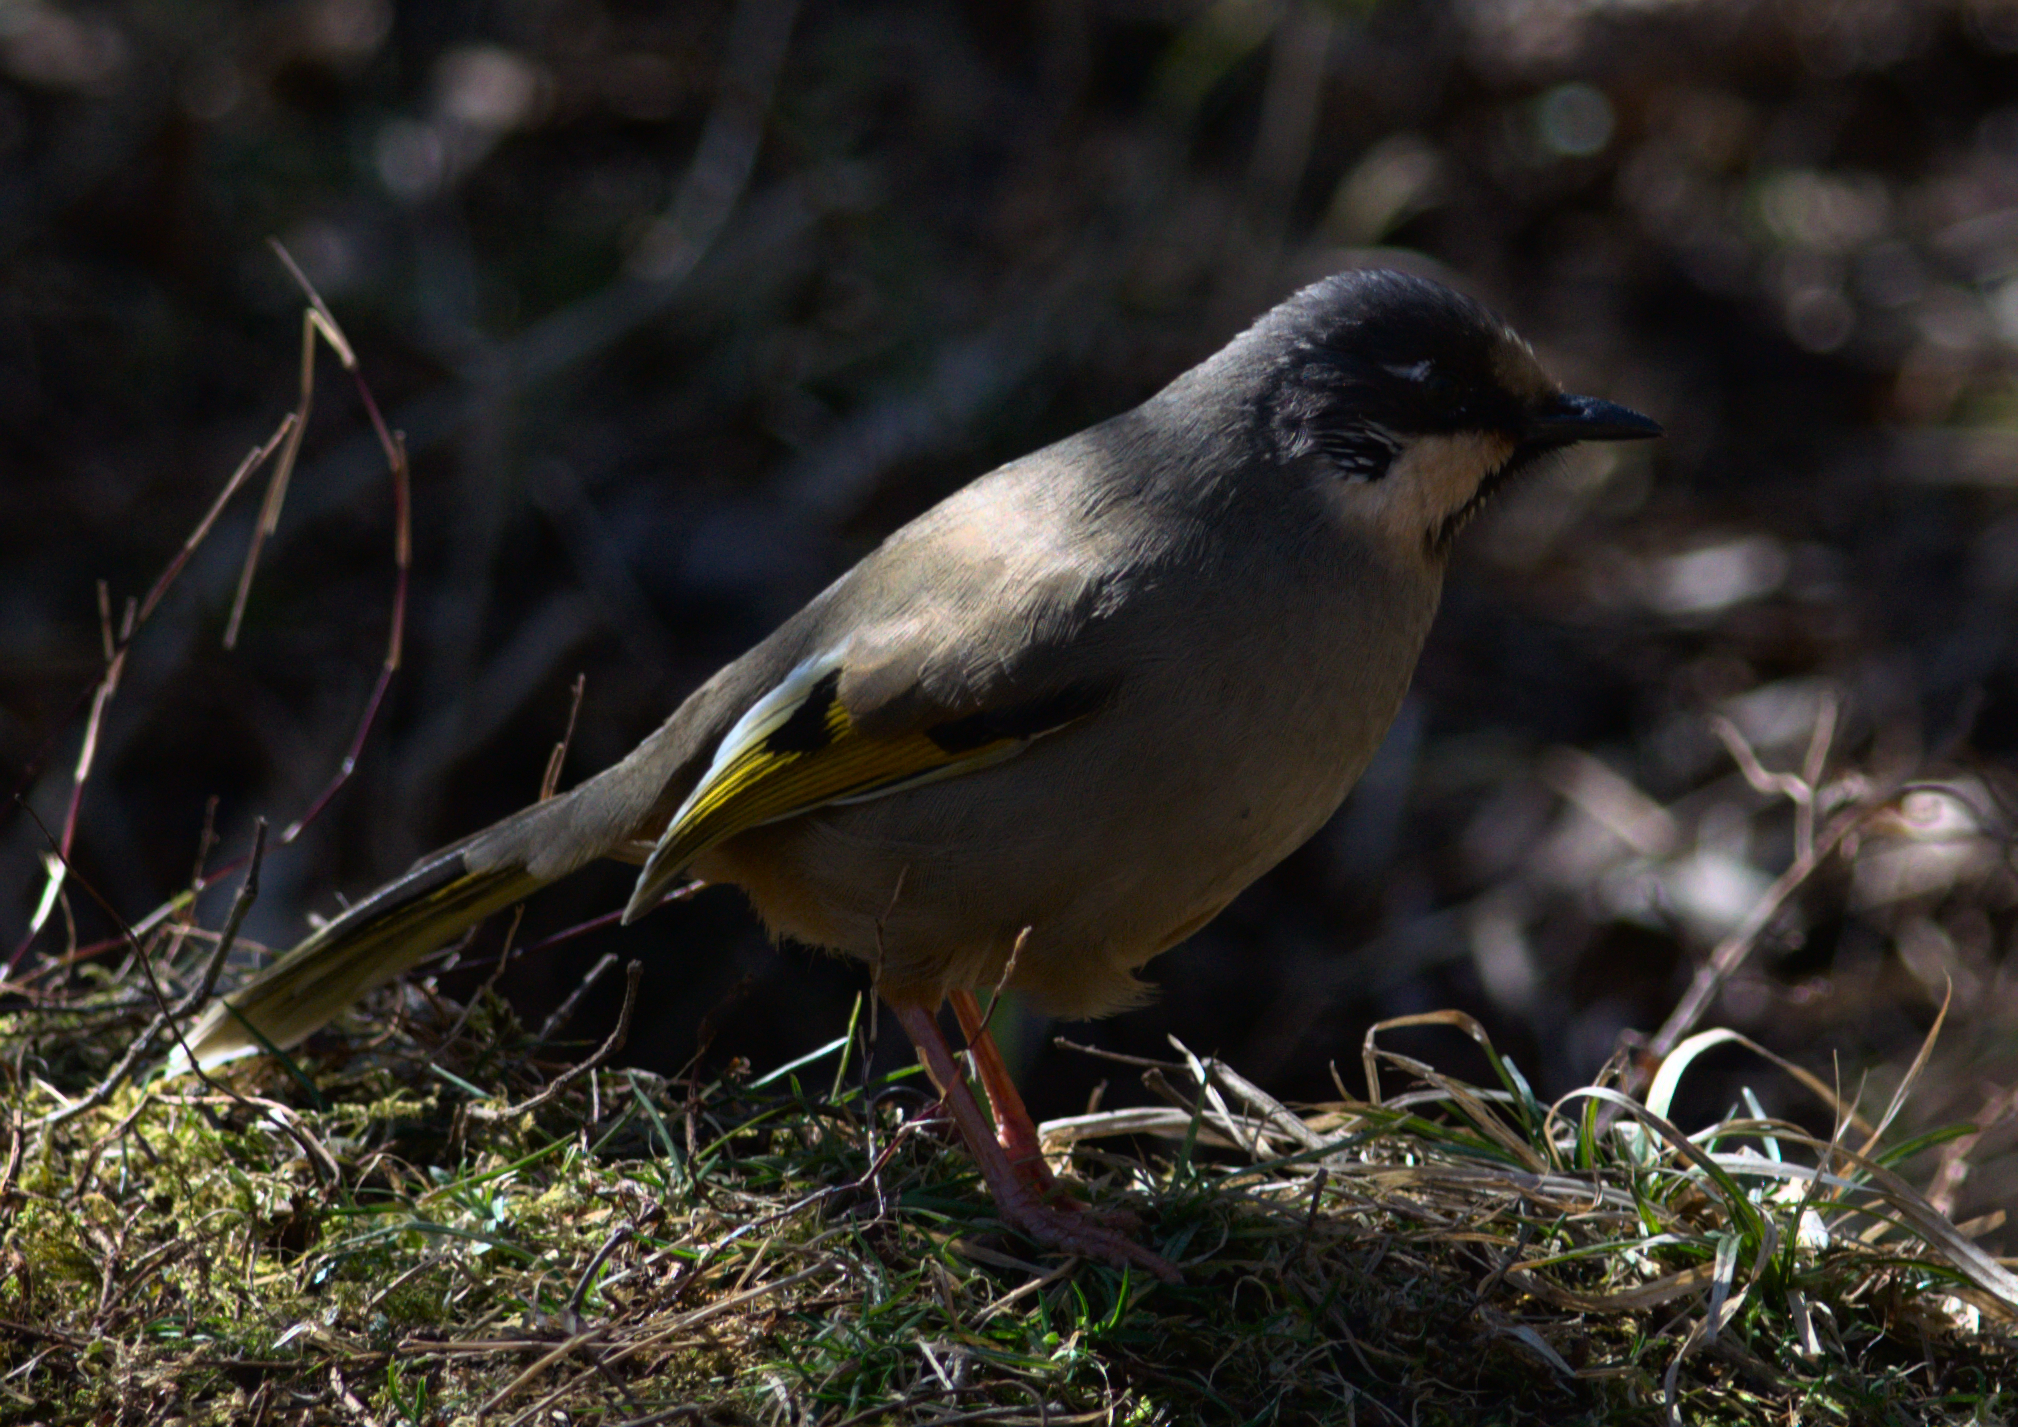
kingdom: Animalia
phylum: Chordata
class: Aves
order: Passeriformes
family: Leiothrichidae
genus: Trochalopteron
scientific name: Trochalopteron variegatum
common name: Variegated laughingthrush
